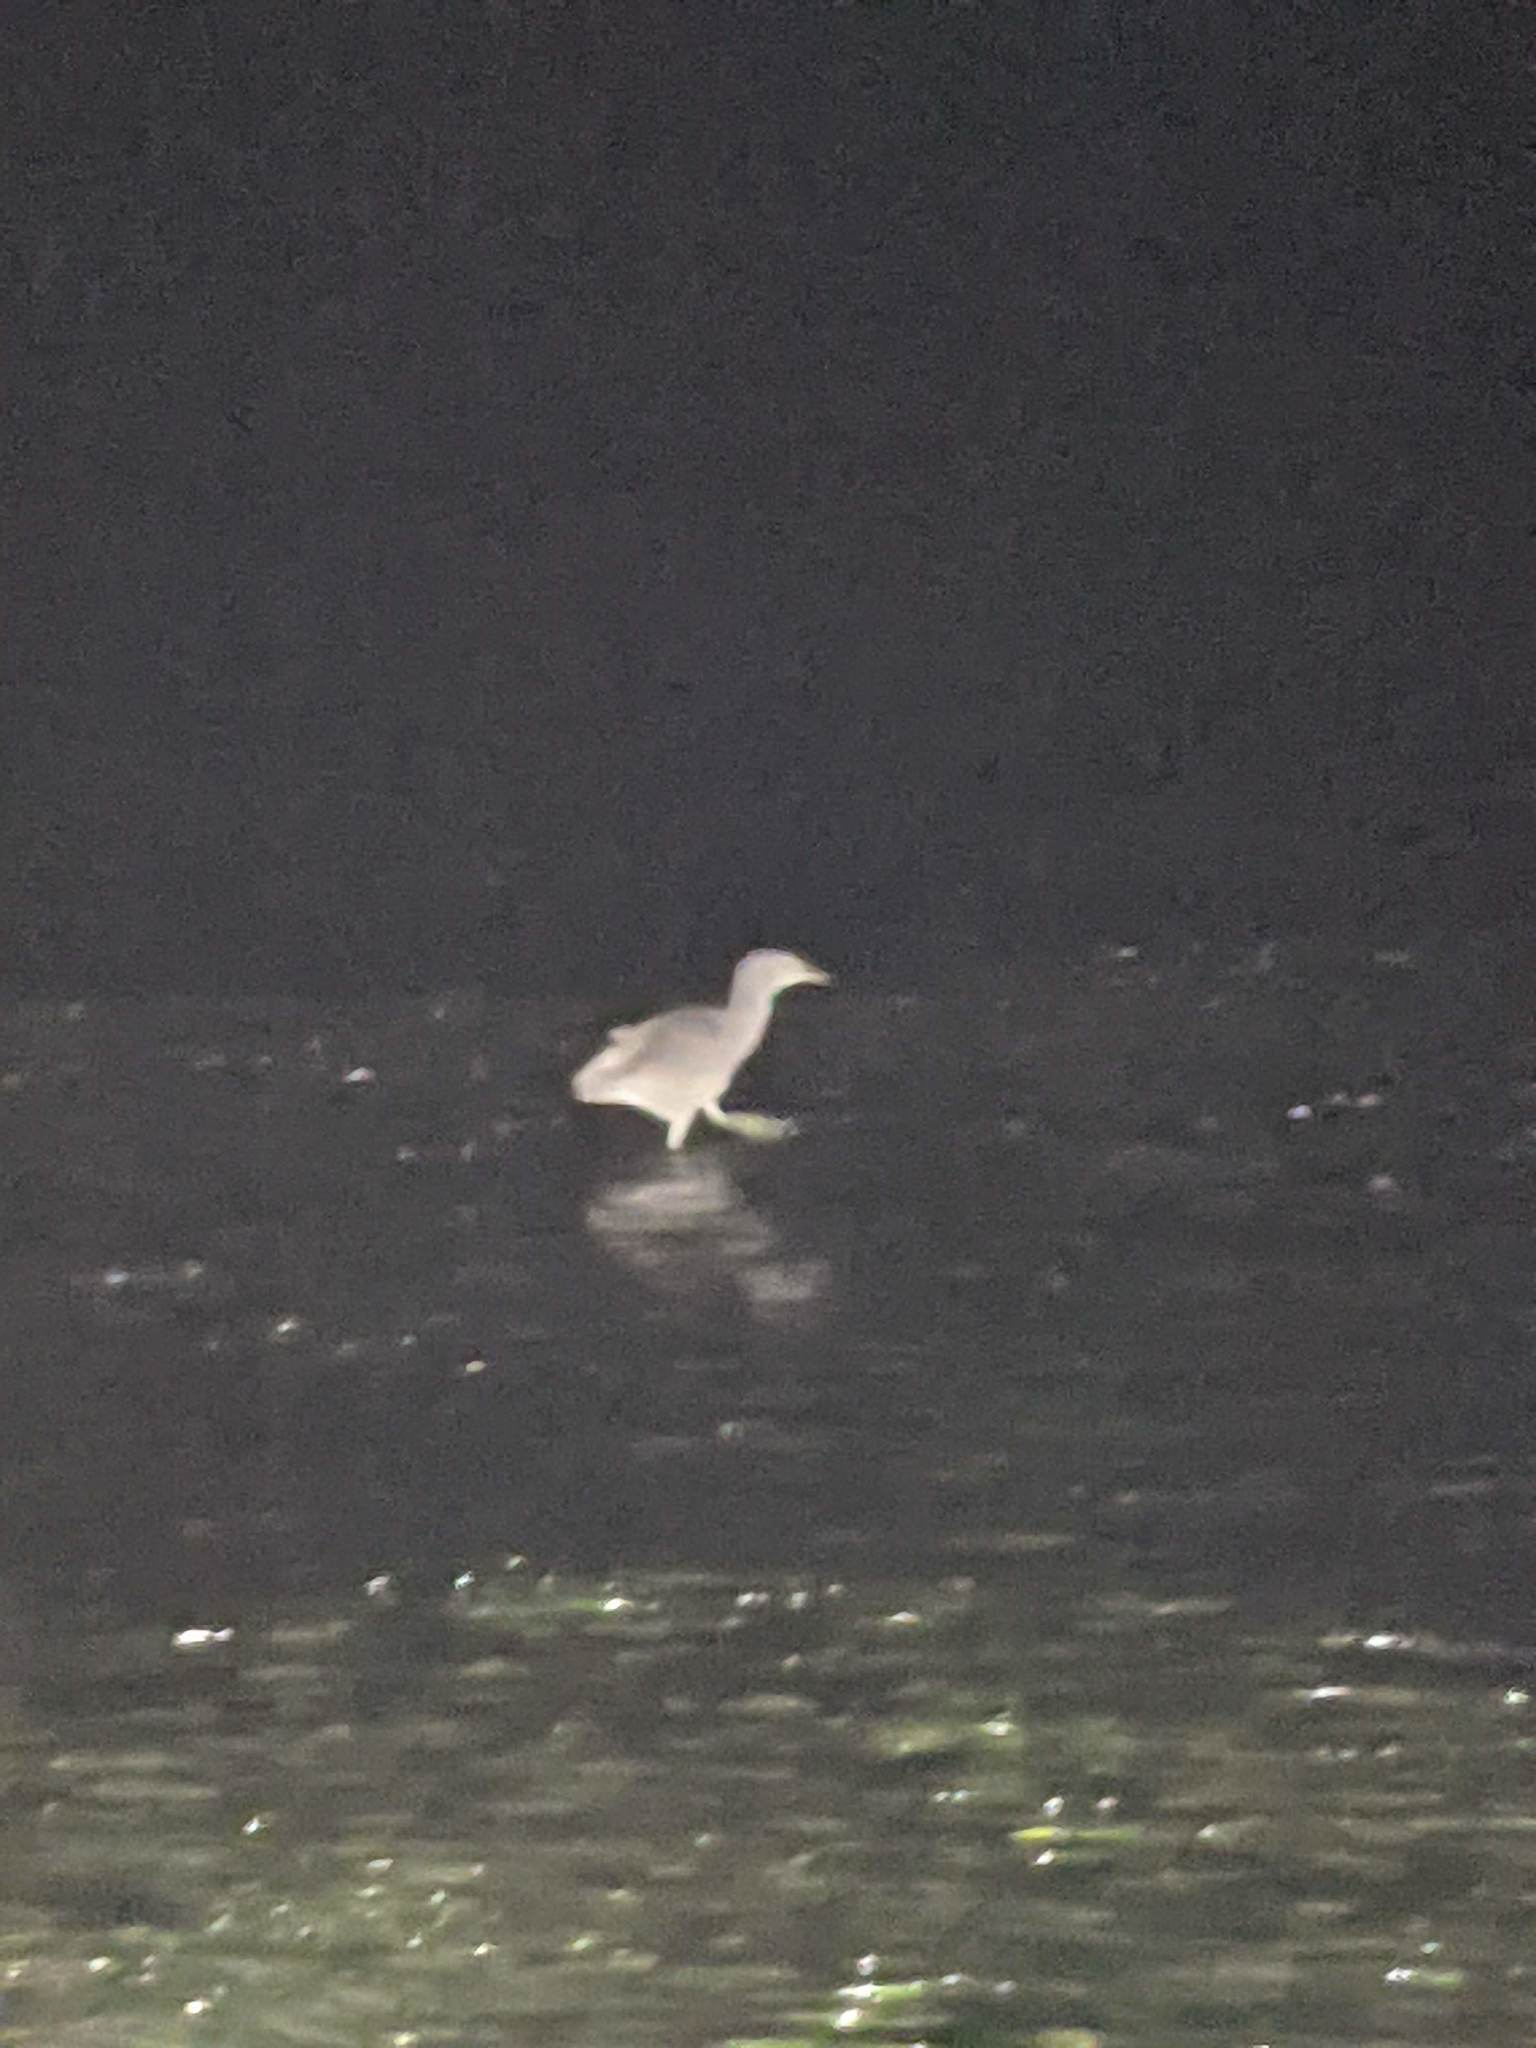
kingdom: Animalia
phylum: Chordata
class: Aves
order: Pelecaniformes
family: Ardeidae
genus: Nycticorax
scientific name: Nycticorax nycticorax
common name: Black-crowned night heron
